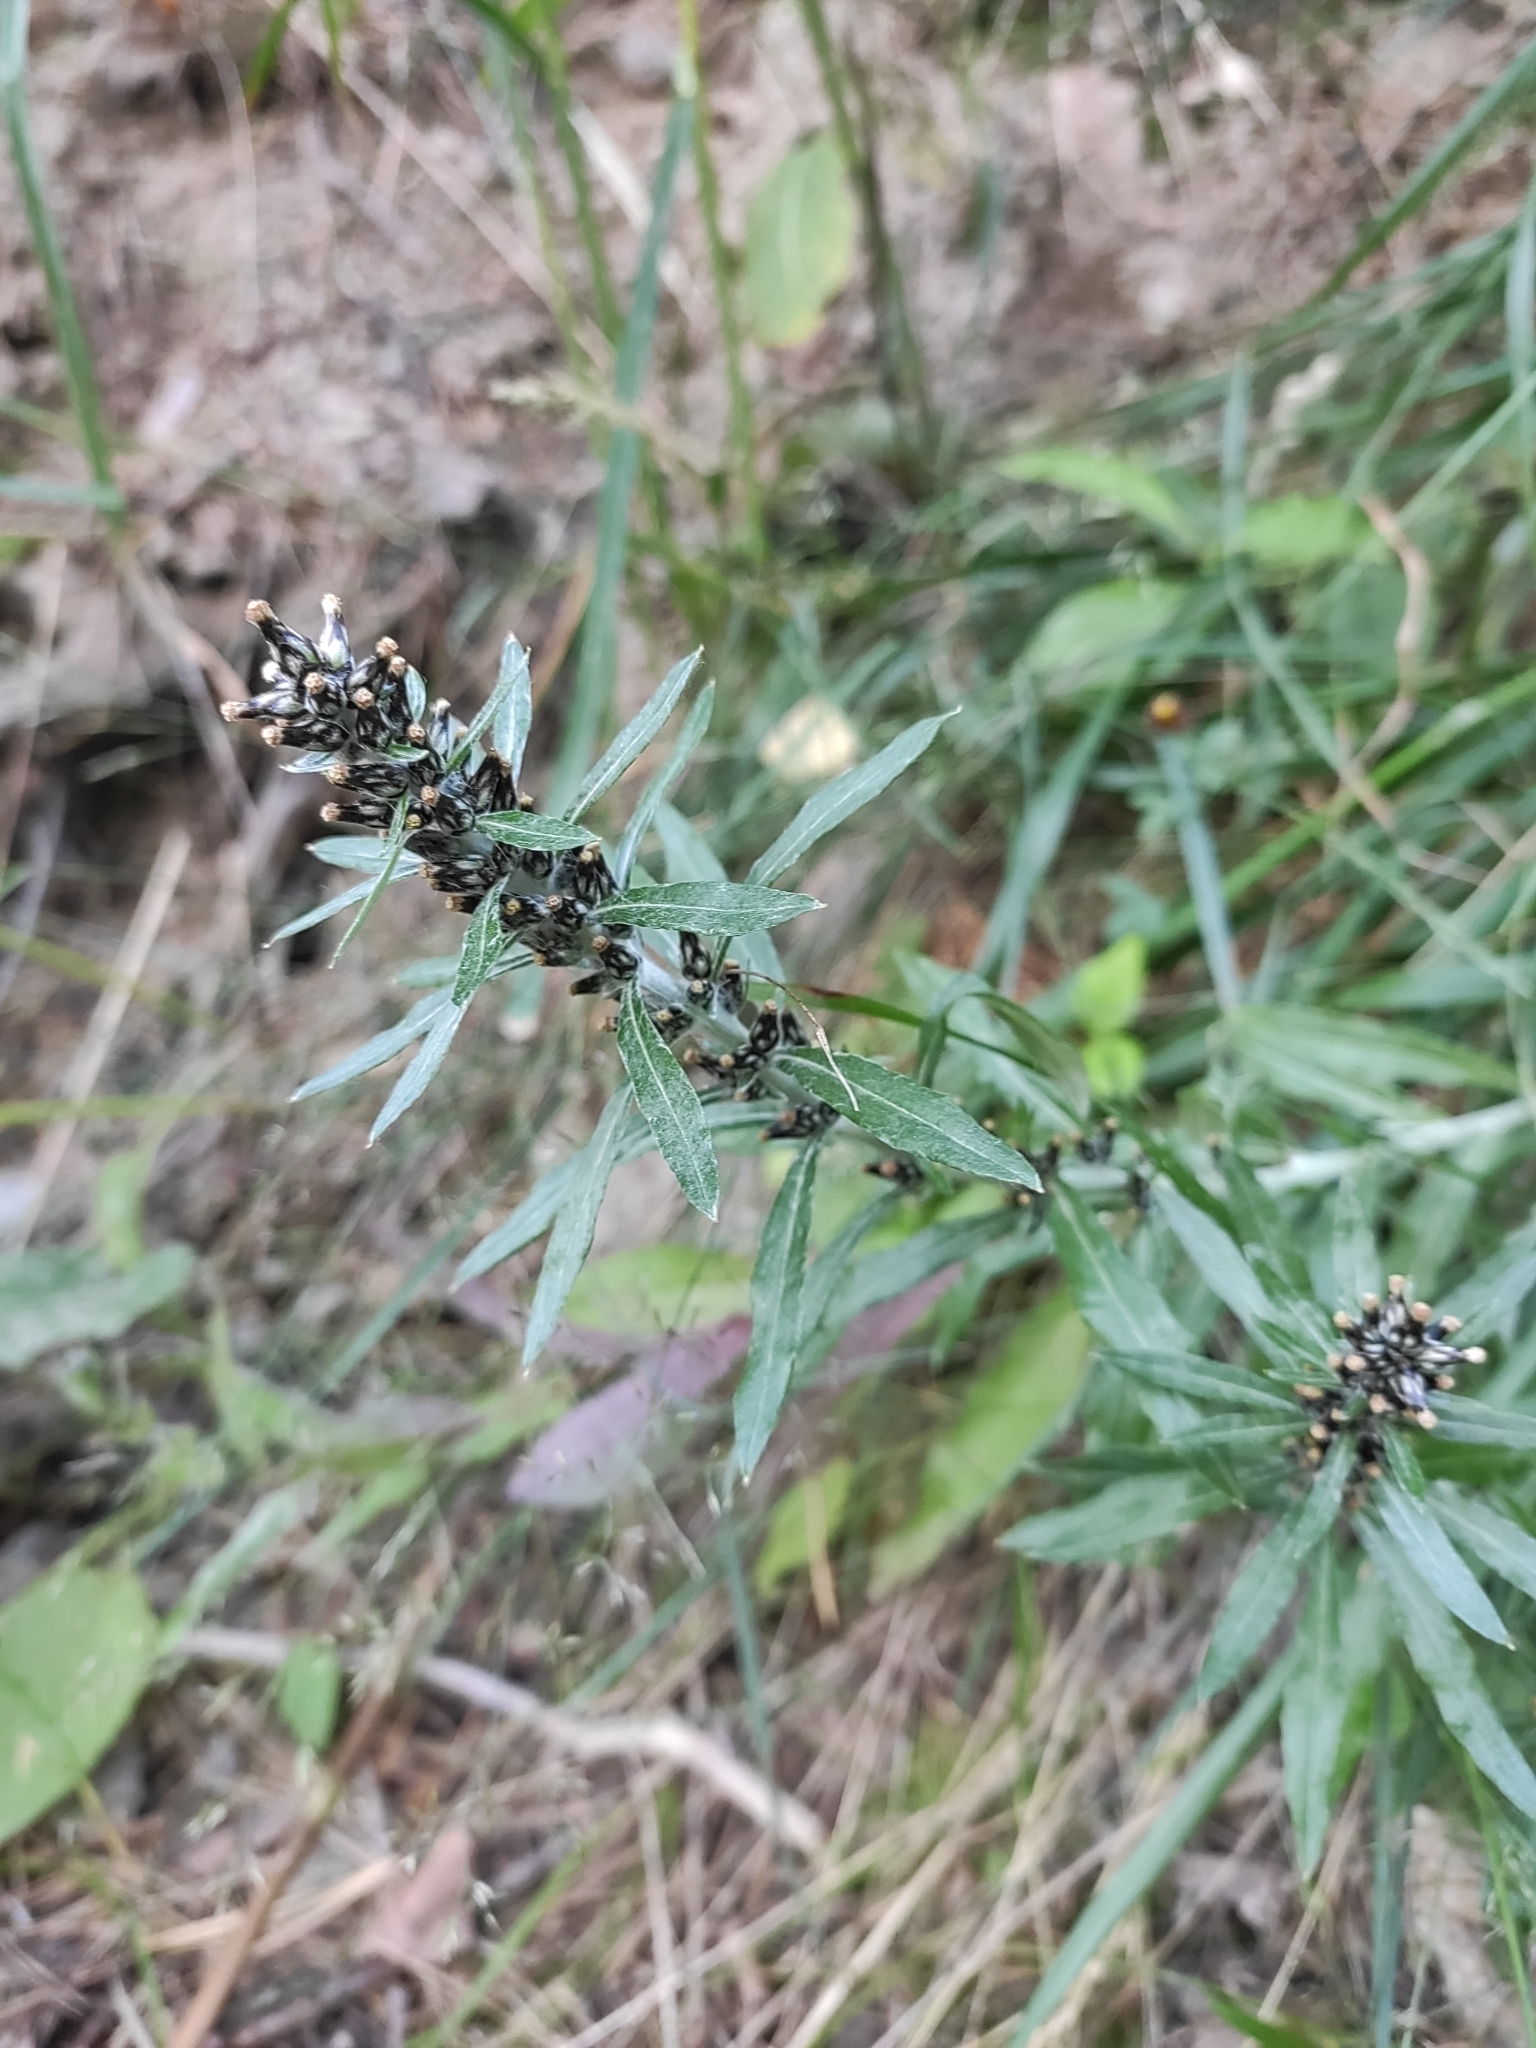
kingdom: Plantae
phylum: Tracheophyta
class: Magnoliopsida
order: Asterales
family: Asteraceae
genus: Omalotheca
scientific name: Omalotheca caucasica
